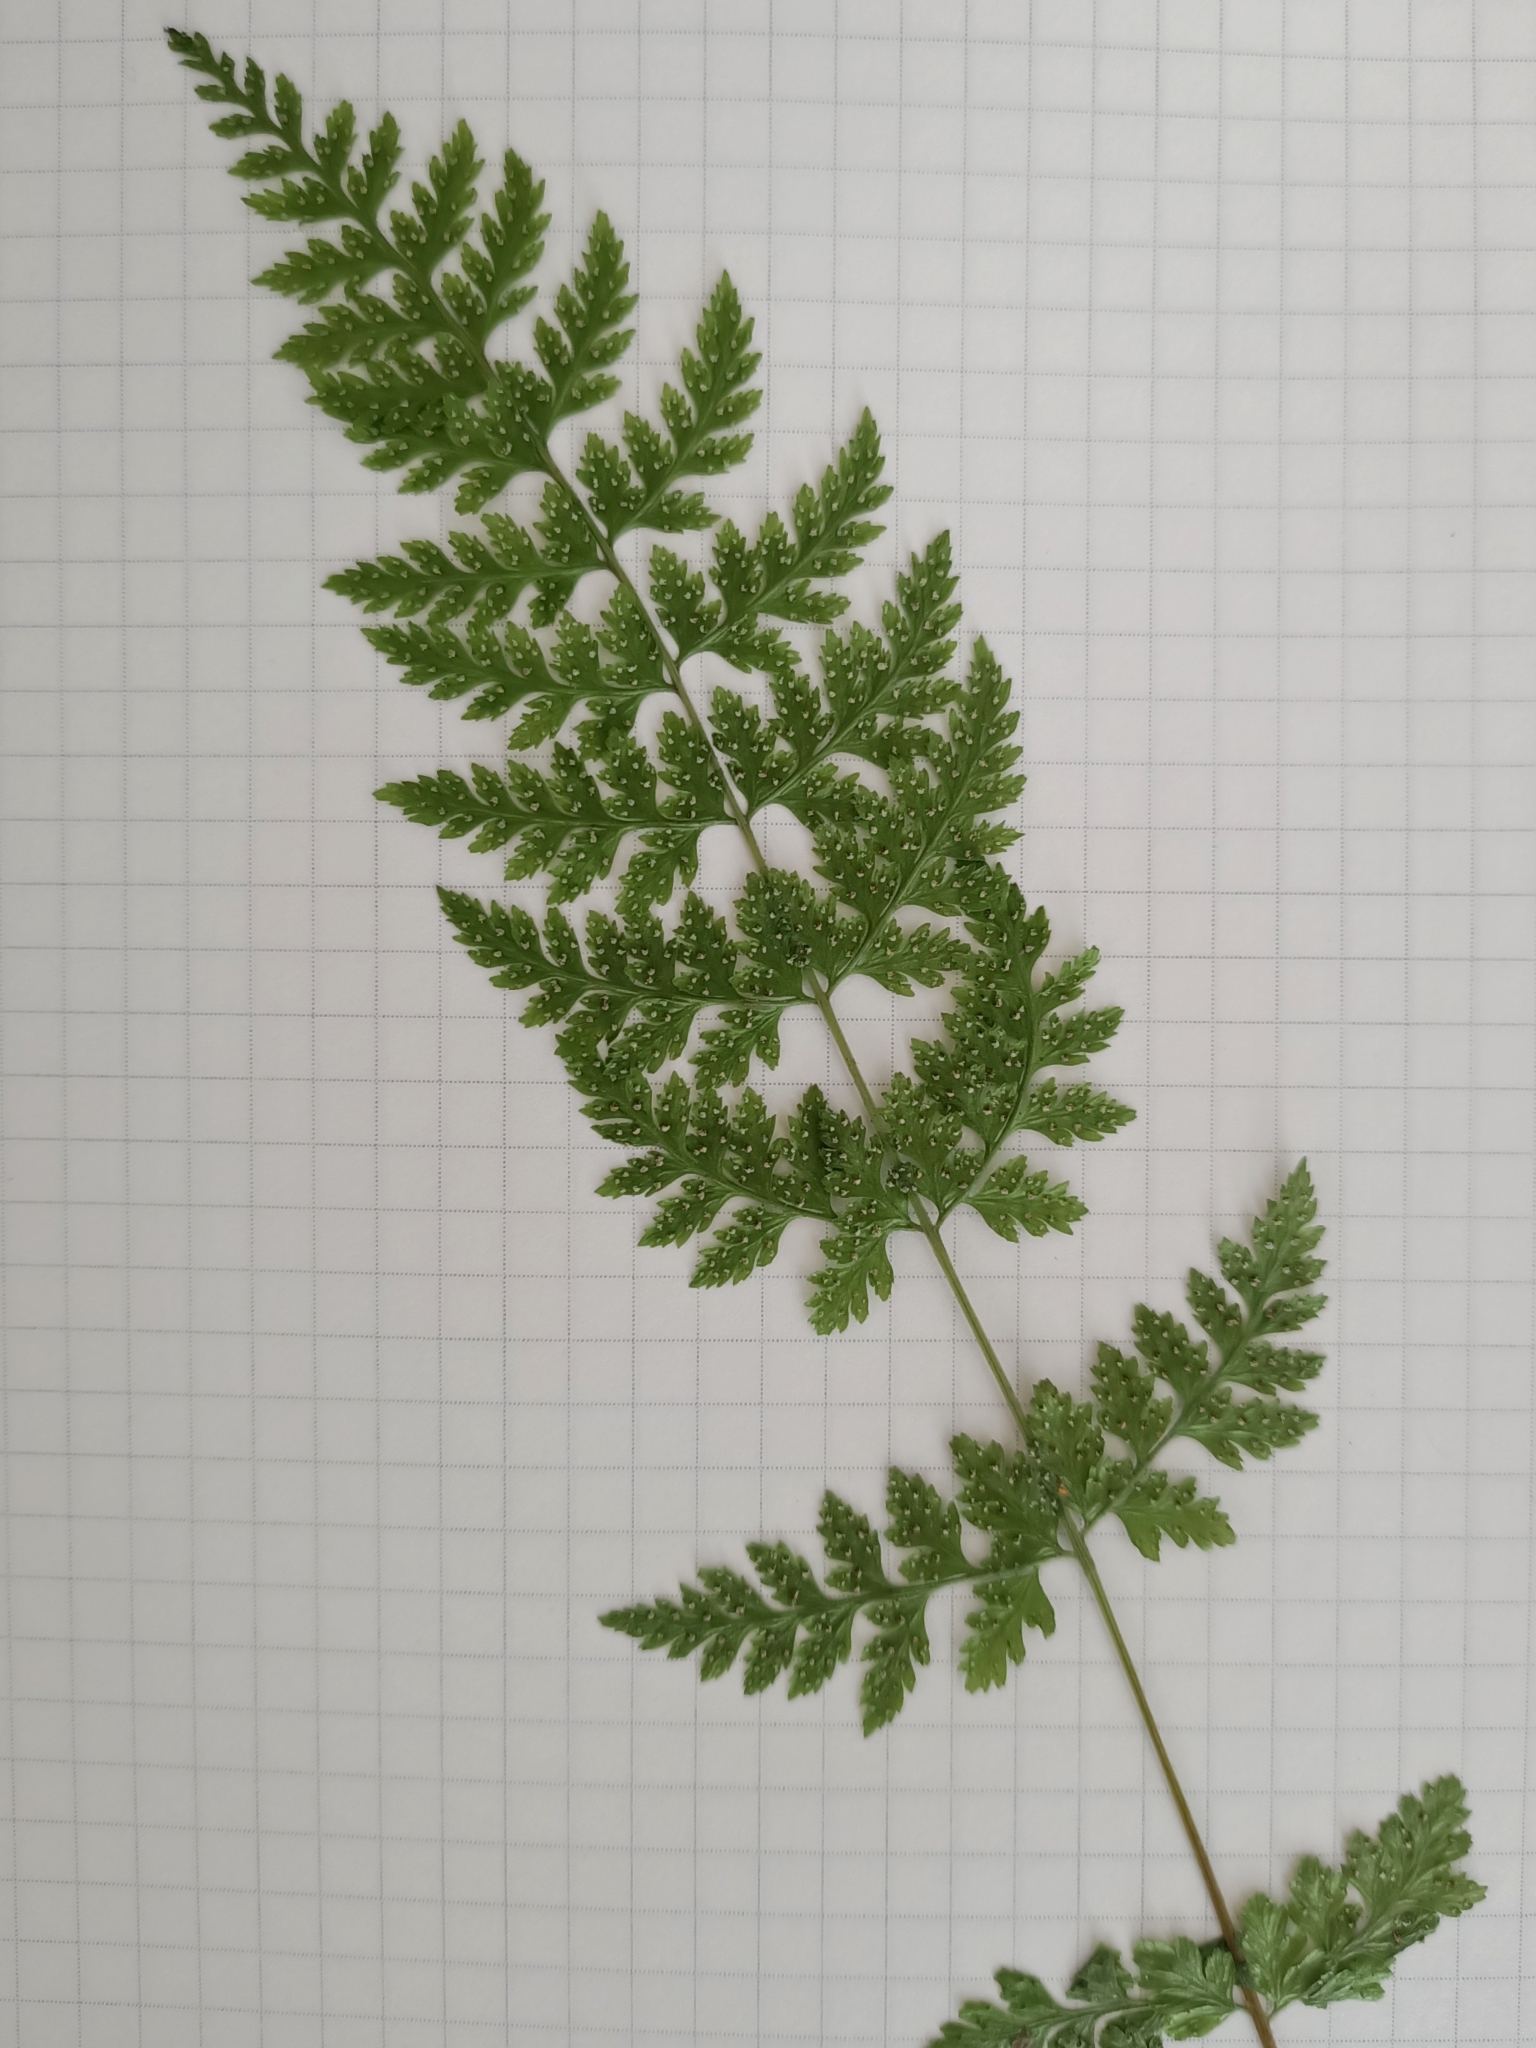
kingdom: Plantae
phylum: Tracheophyta
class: Polypodiopsida
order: Polypodiales
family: Cystopteridaceae
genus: Cystopteris
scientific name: Cystopteris fragilis
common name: Brittle bladder fern
